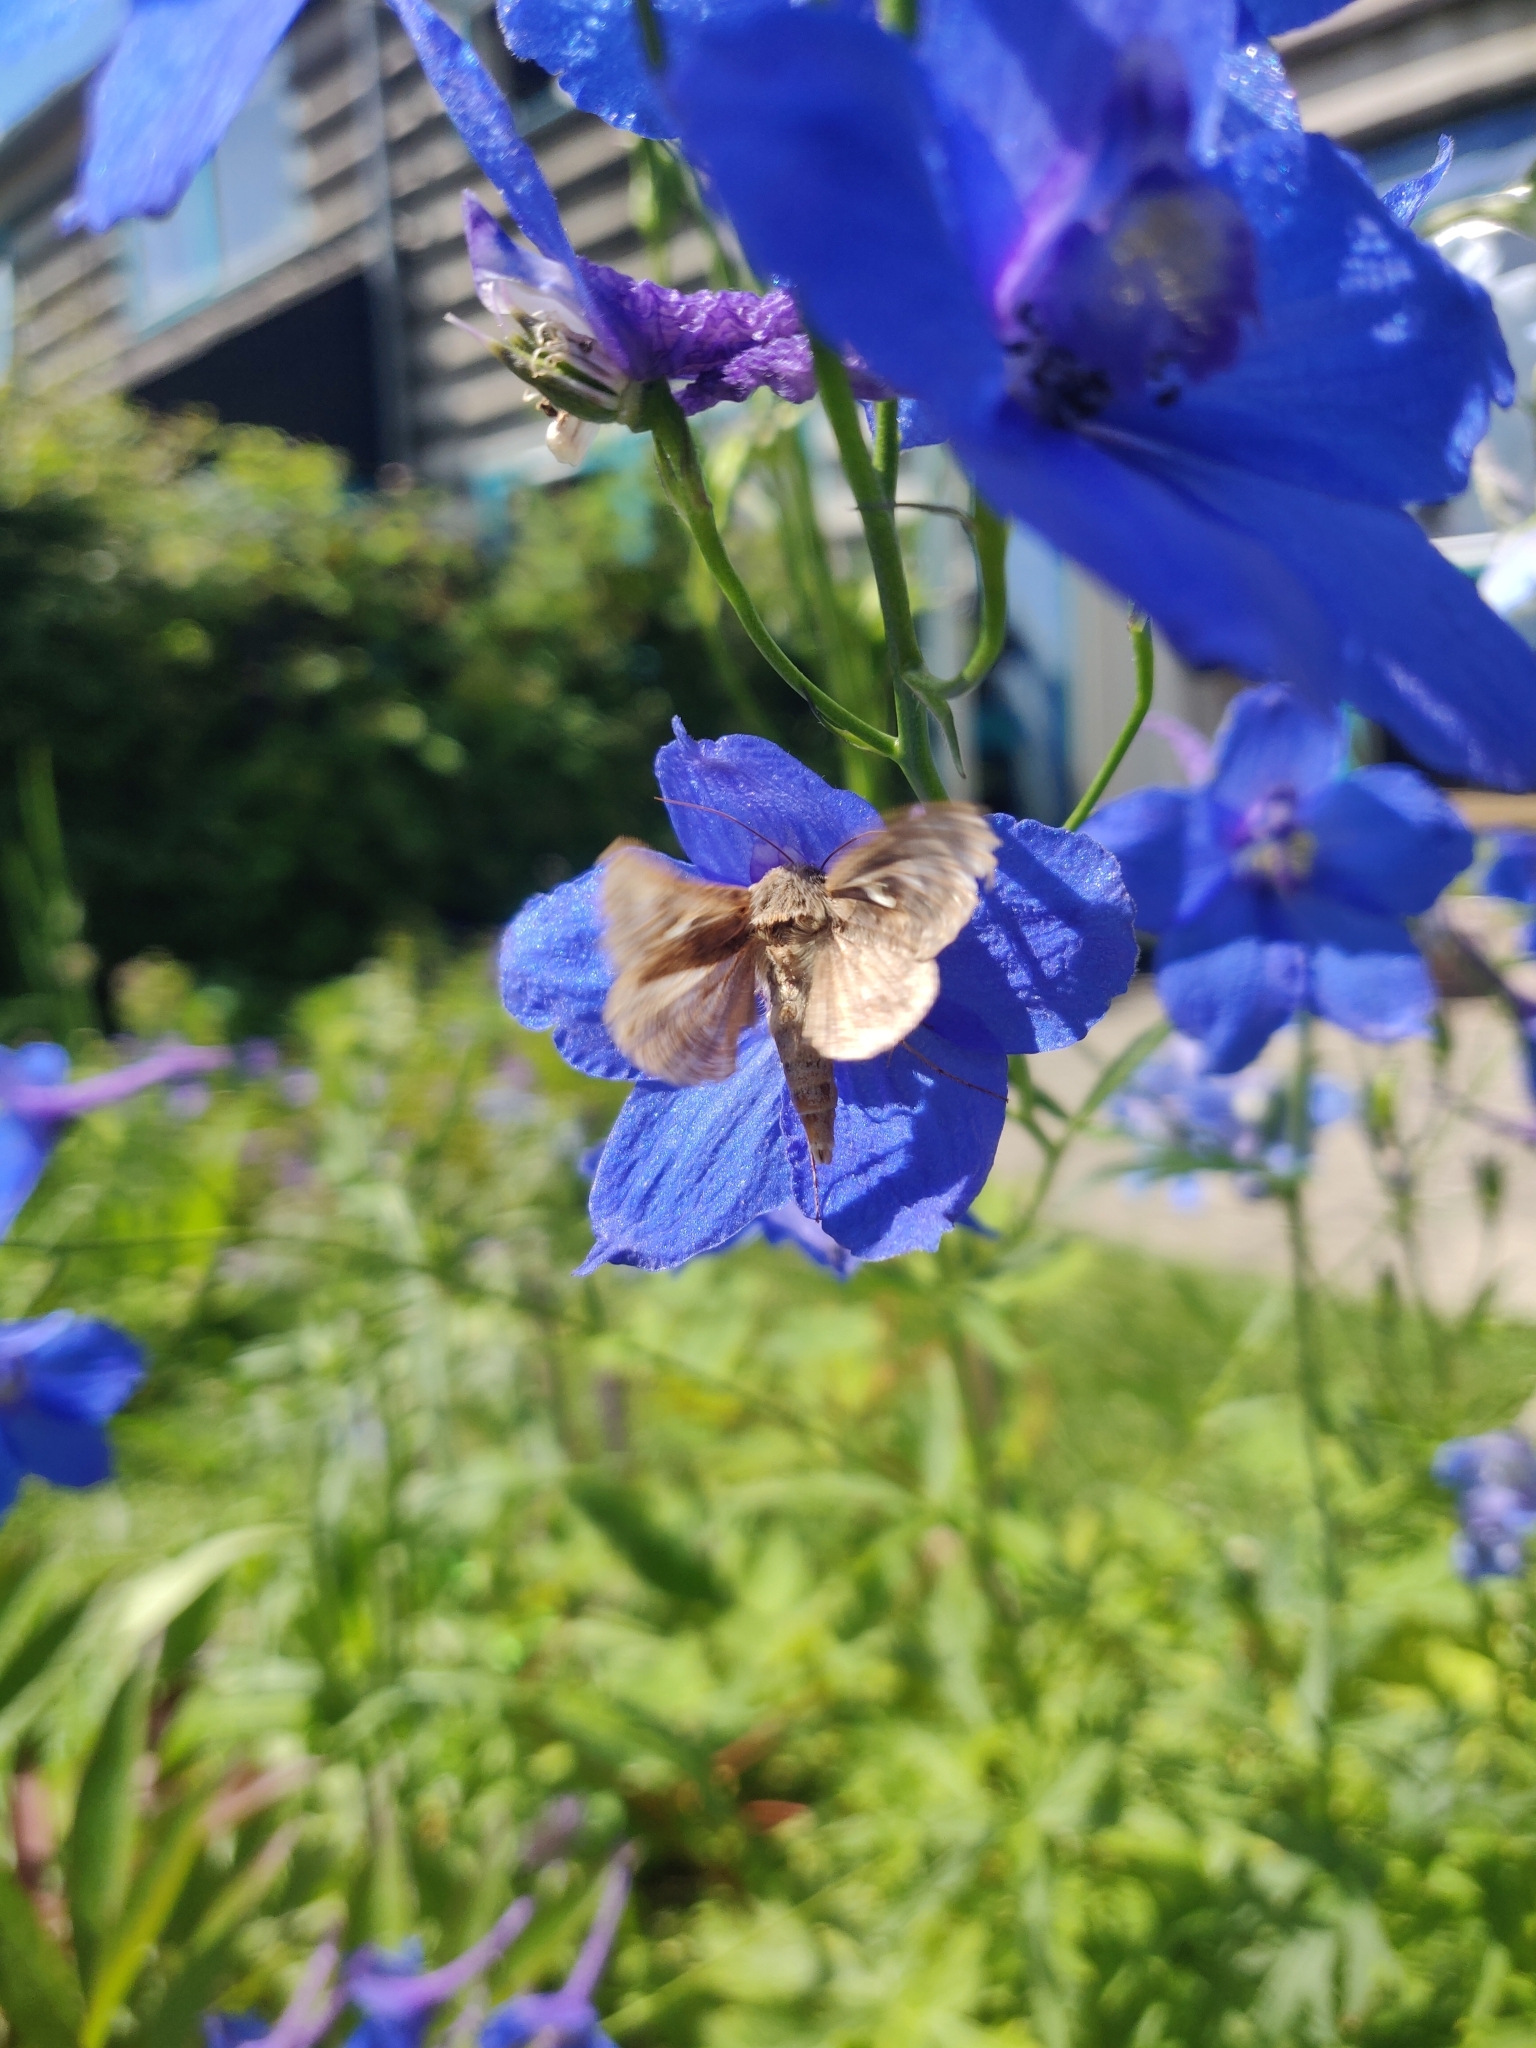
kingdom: Animalia
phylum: Arthropoda
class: Insecta
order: Lepidoptera
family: Noctuidae
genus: Autographa
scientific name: Autographa gamma
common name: Silver y
